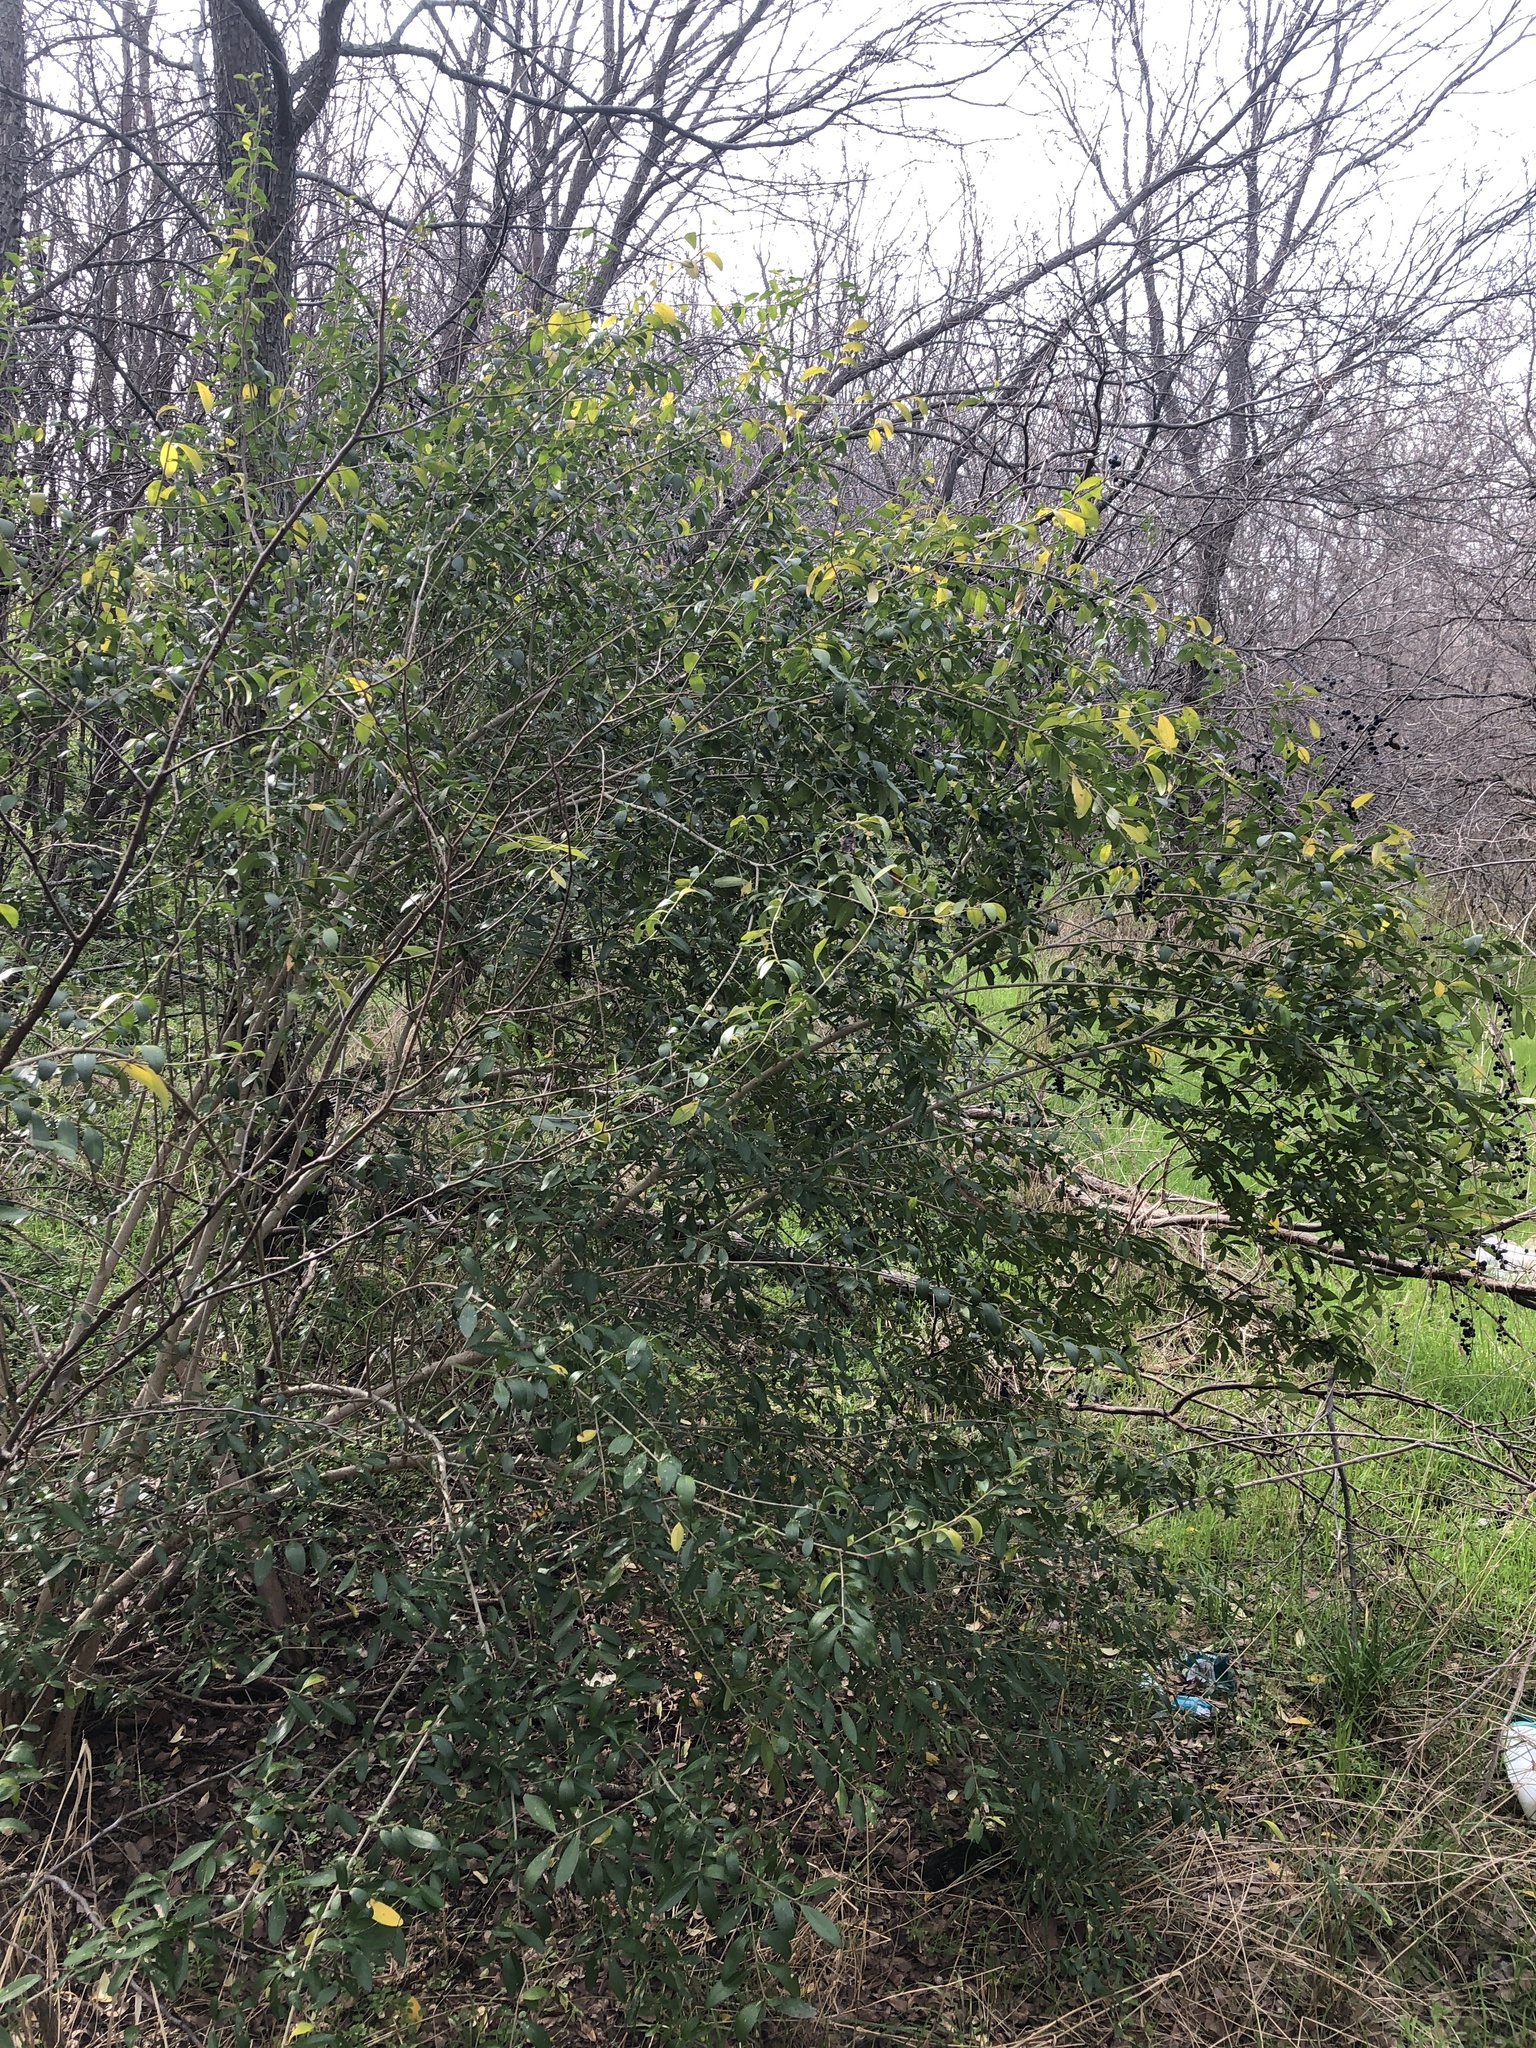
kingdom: Plantae
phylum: Tracheophyta
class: Magnoliopsida
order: Lamiales
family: Oleaceae
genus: Ligustrum
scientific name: Ligustrum quihoui
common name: Waxyleaf privet
